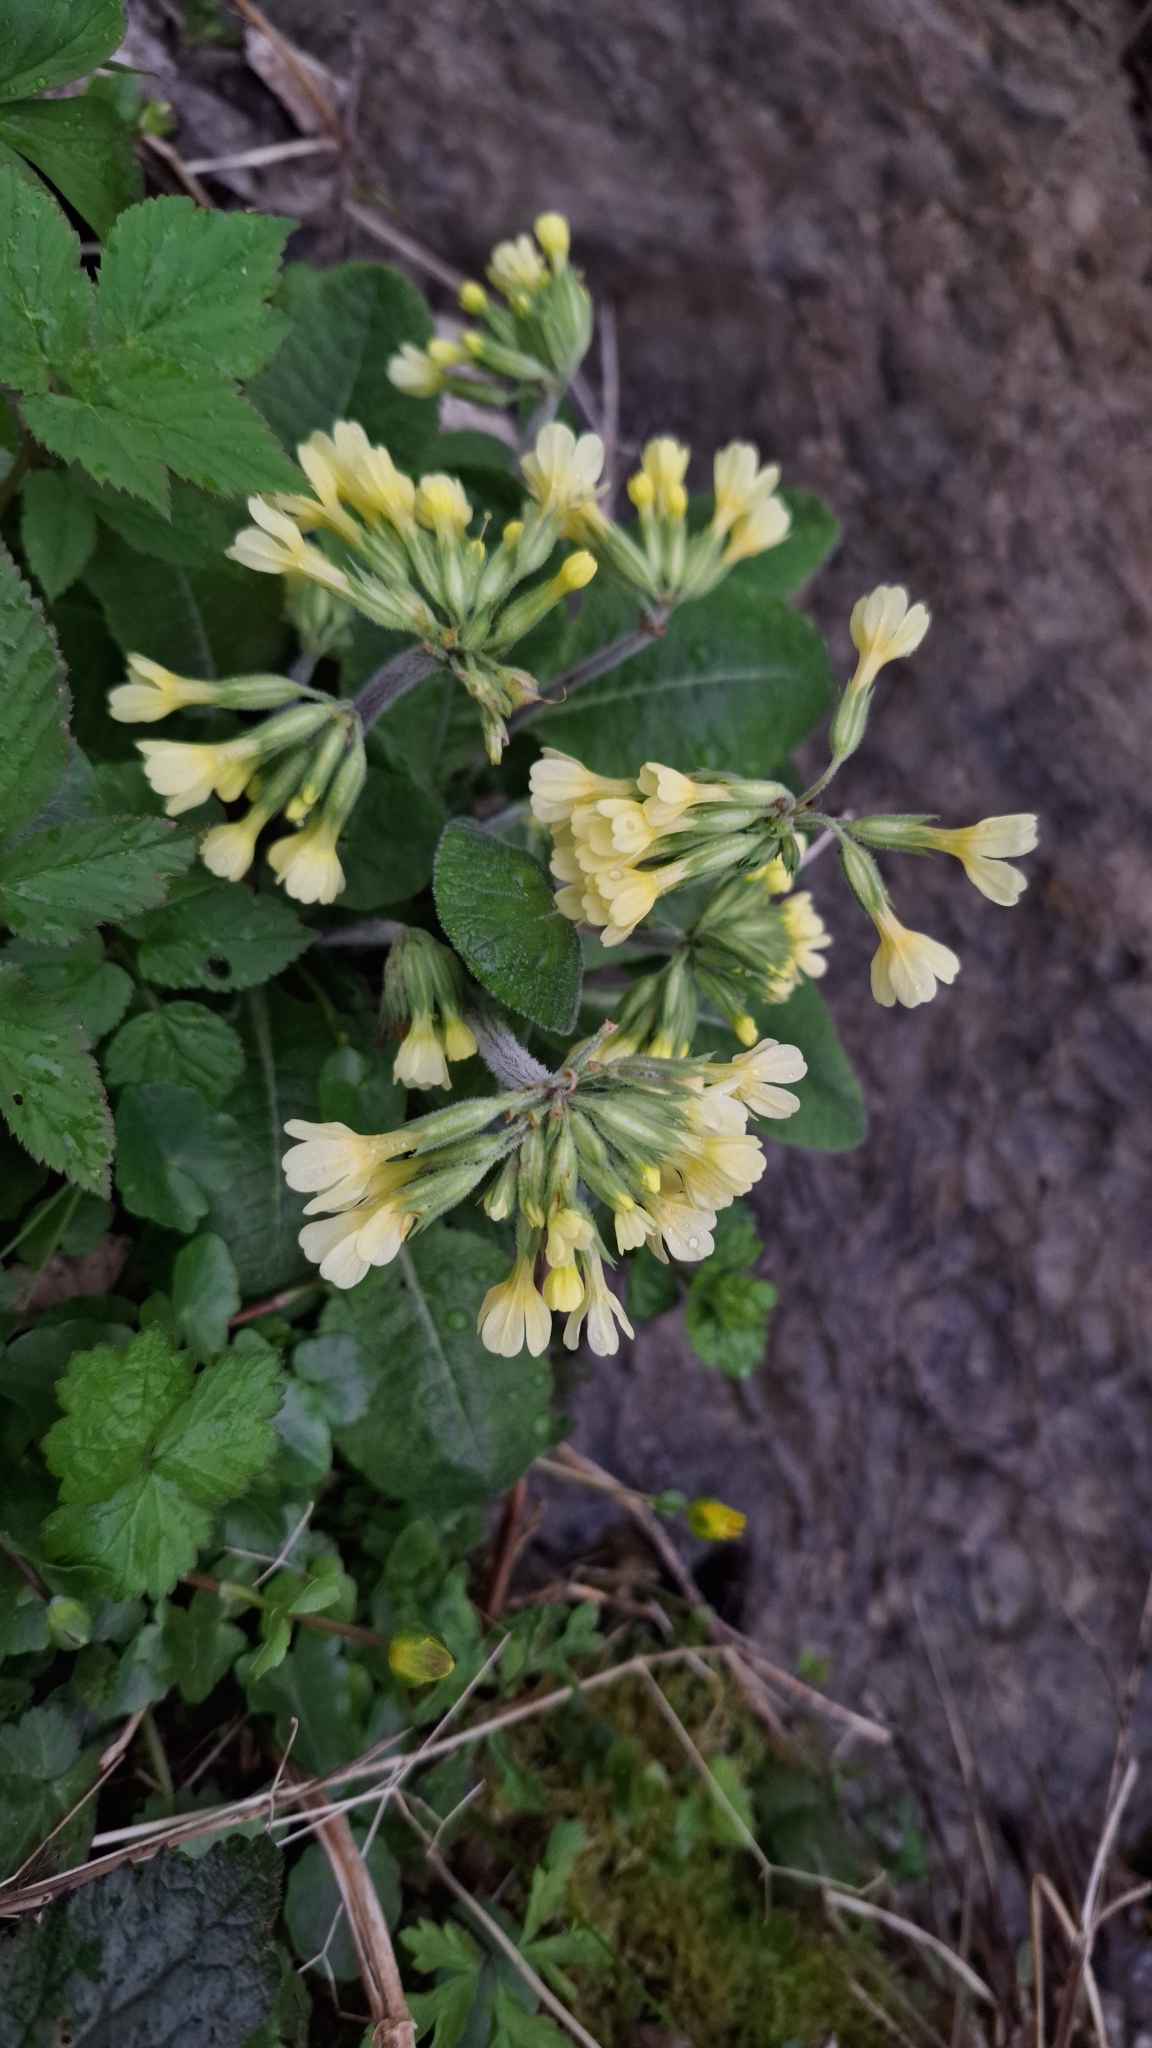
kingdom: Plantae
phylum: Tracheophyta
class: Magnoliopsida
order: Ericales
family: Primulaceae
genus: Primula
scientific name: Primula elatior
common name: Oxlip
